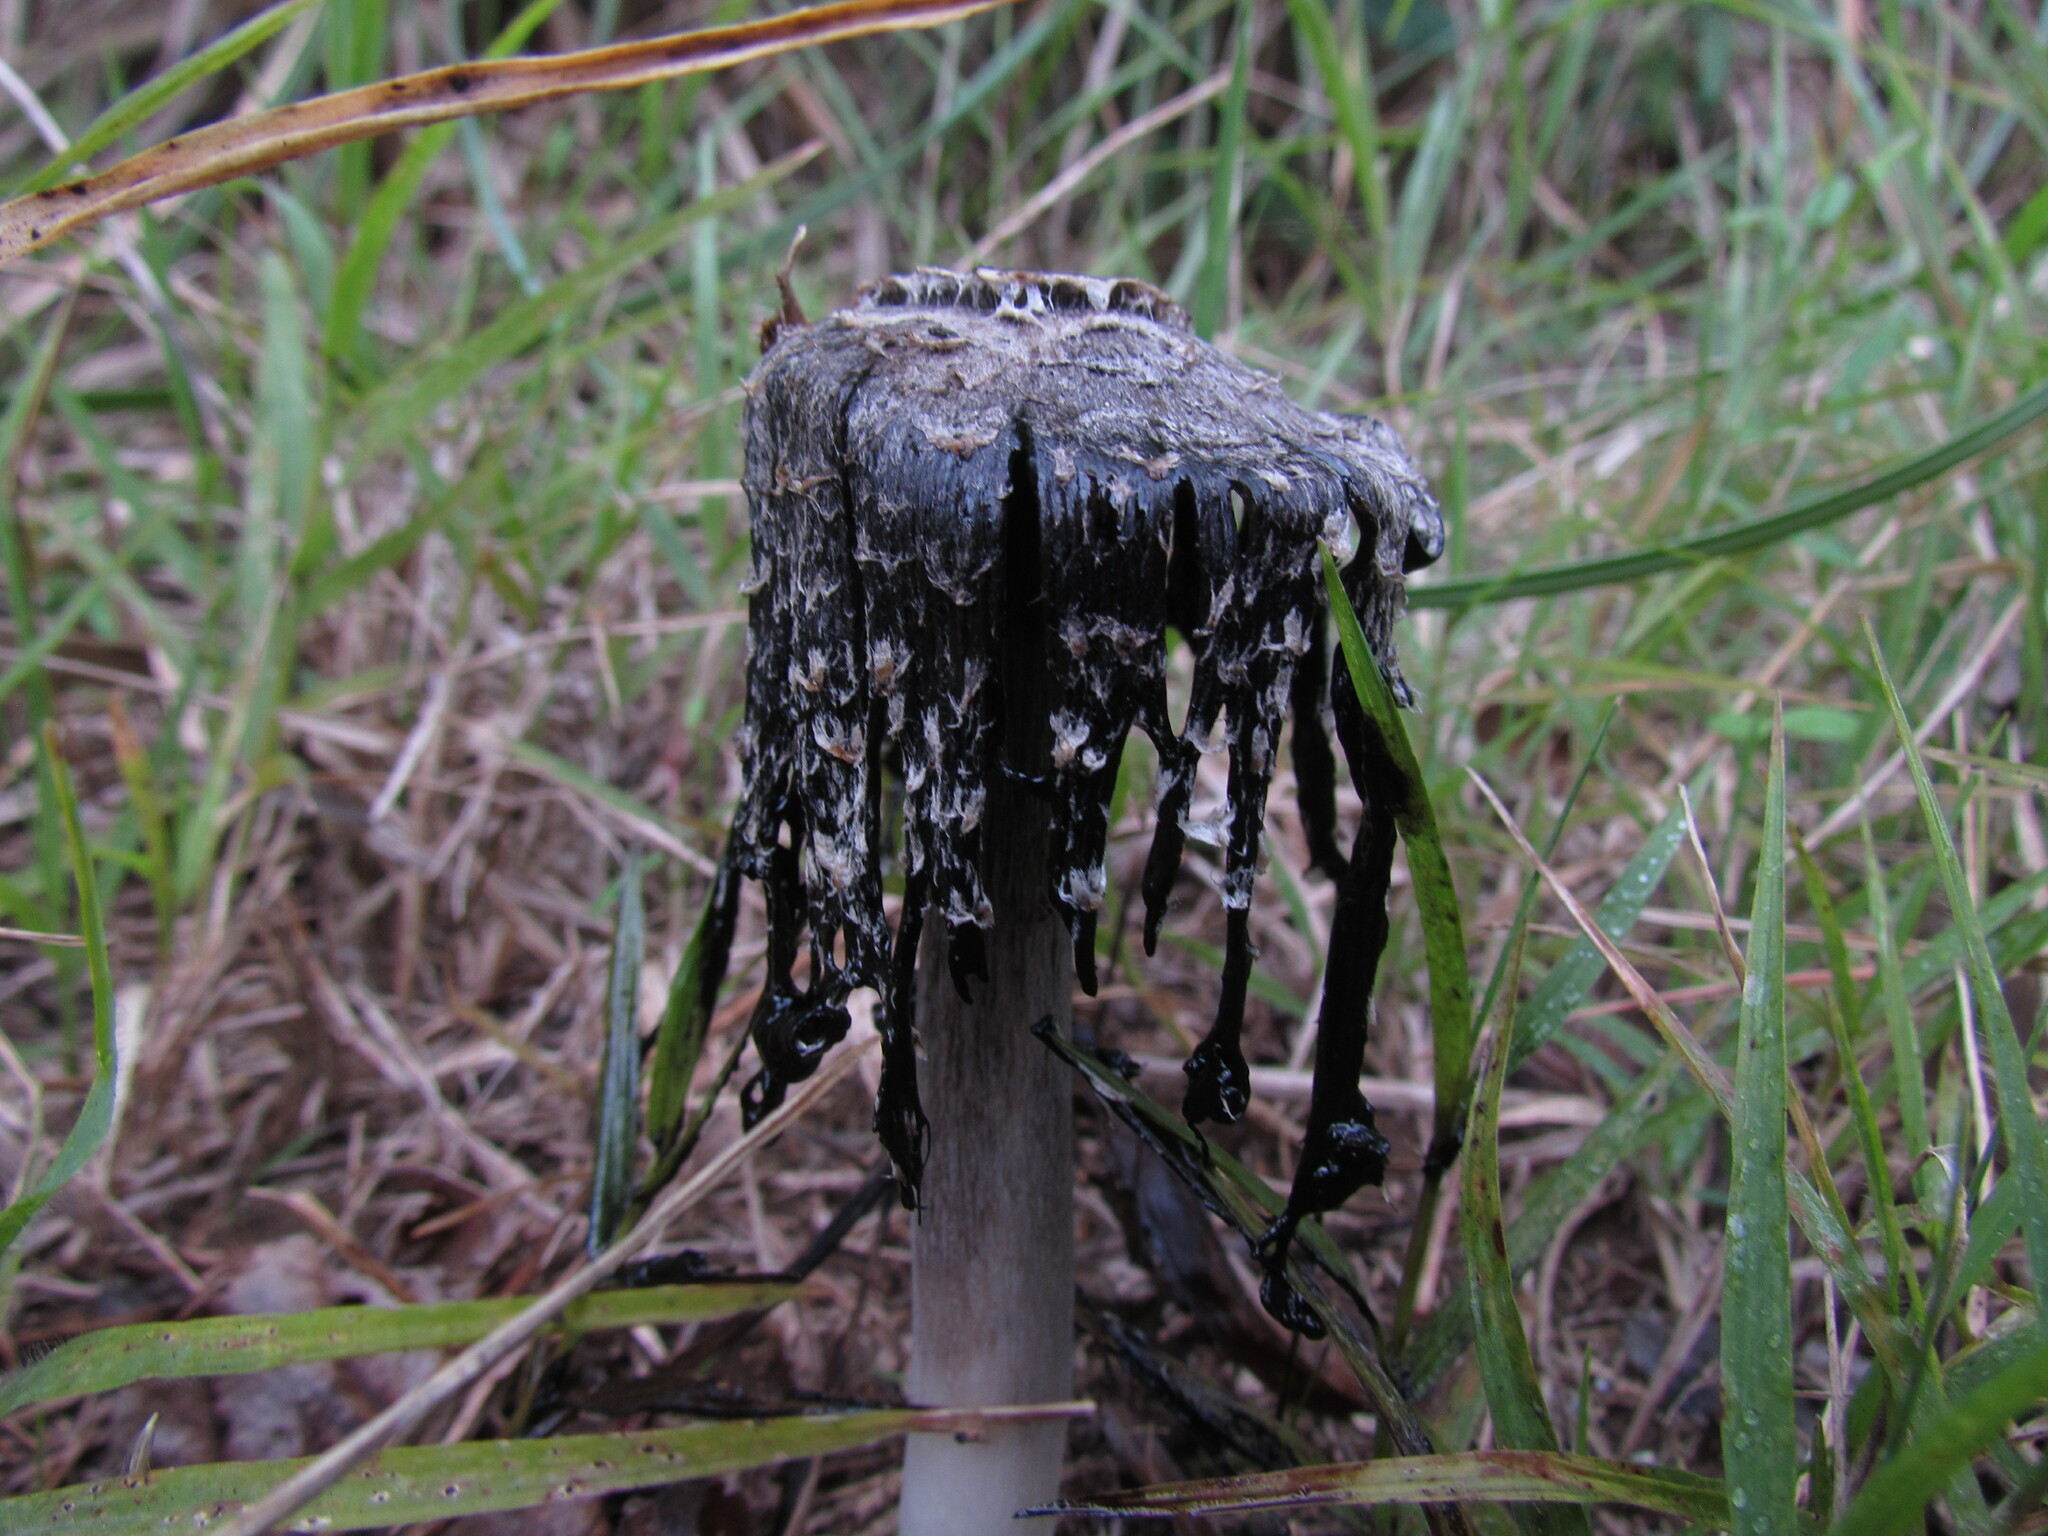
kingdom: Fungi
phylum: Basidiomycota
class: Agaricomycetes
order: Agaricales
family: Agaricaceae
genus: Coprinus
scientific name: Coprinus comatus
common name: Lawyer's wig
